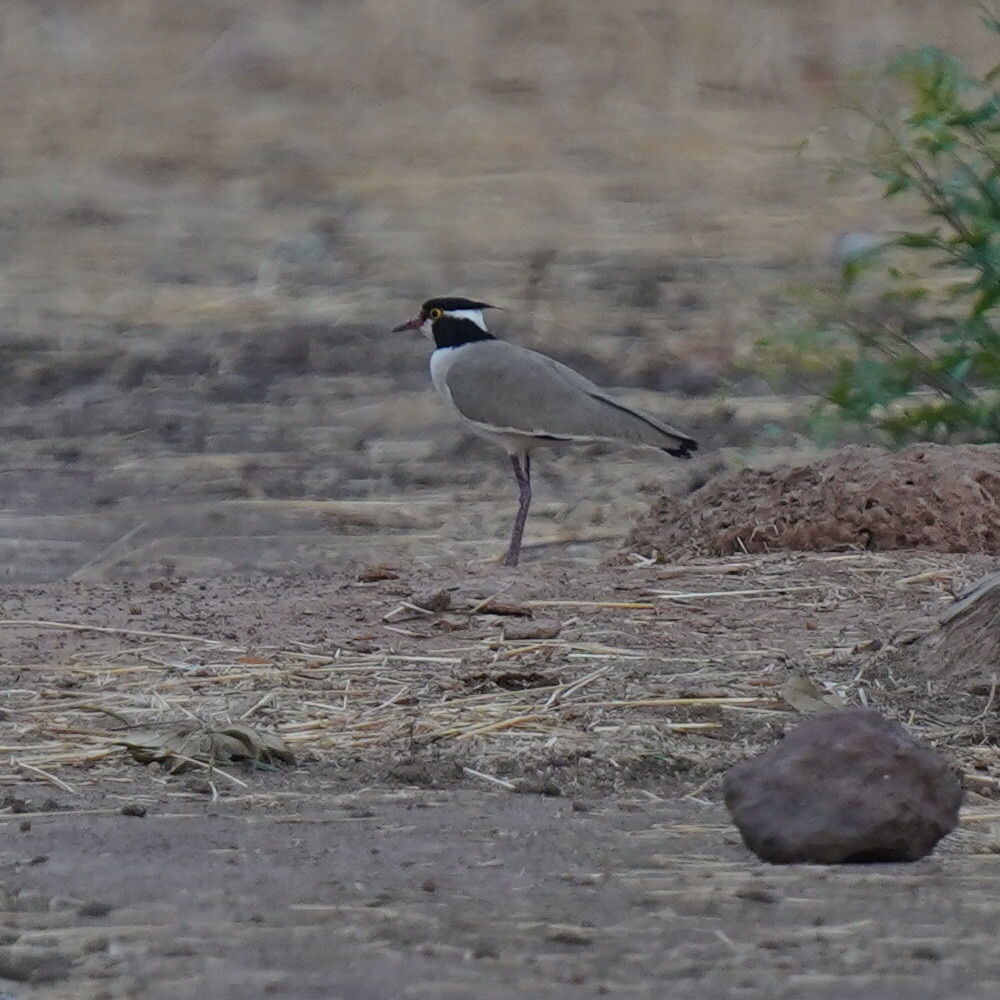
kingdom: Animalia
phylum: Chordata
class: Aves
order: Charadriiformes
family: Charadriidae
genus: Vanellus
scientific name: Vanellus tectus
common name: Black-headed lapwing
